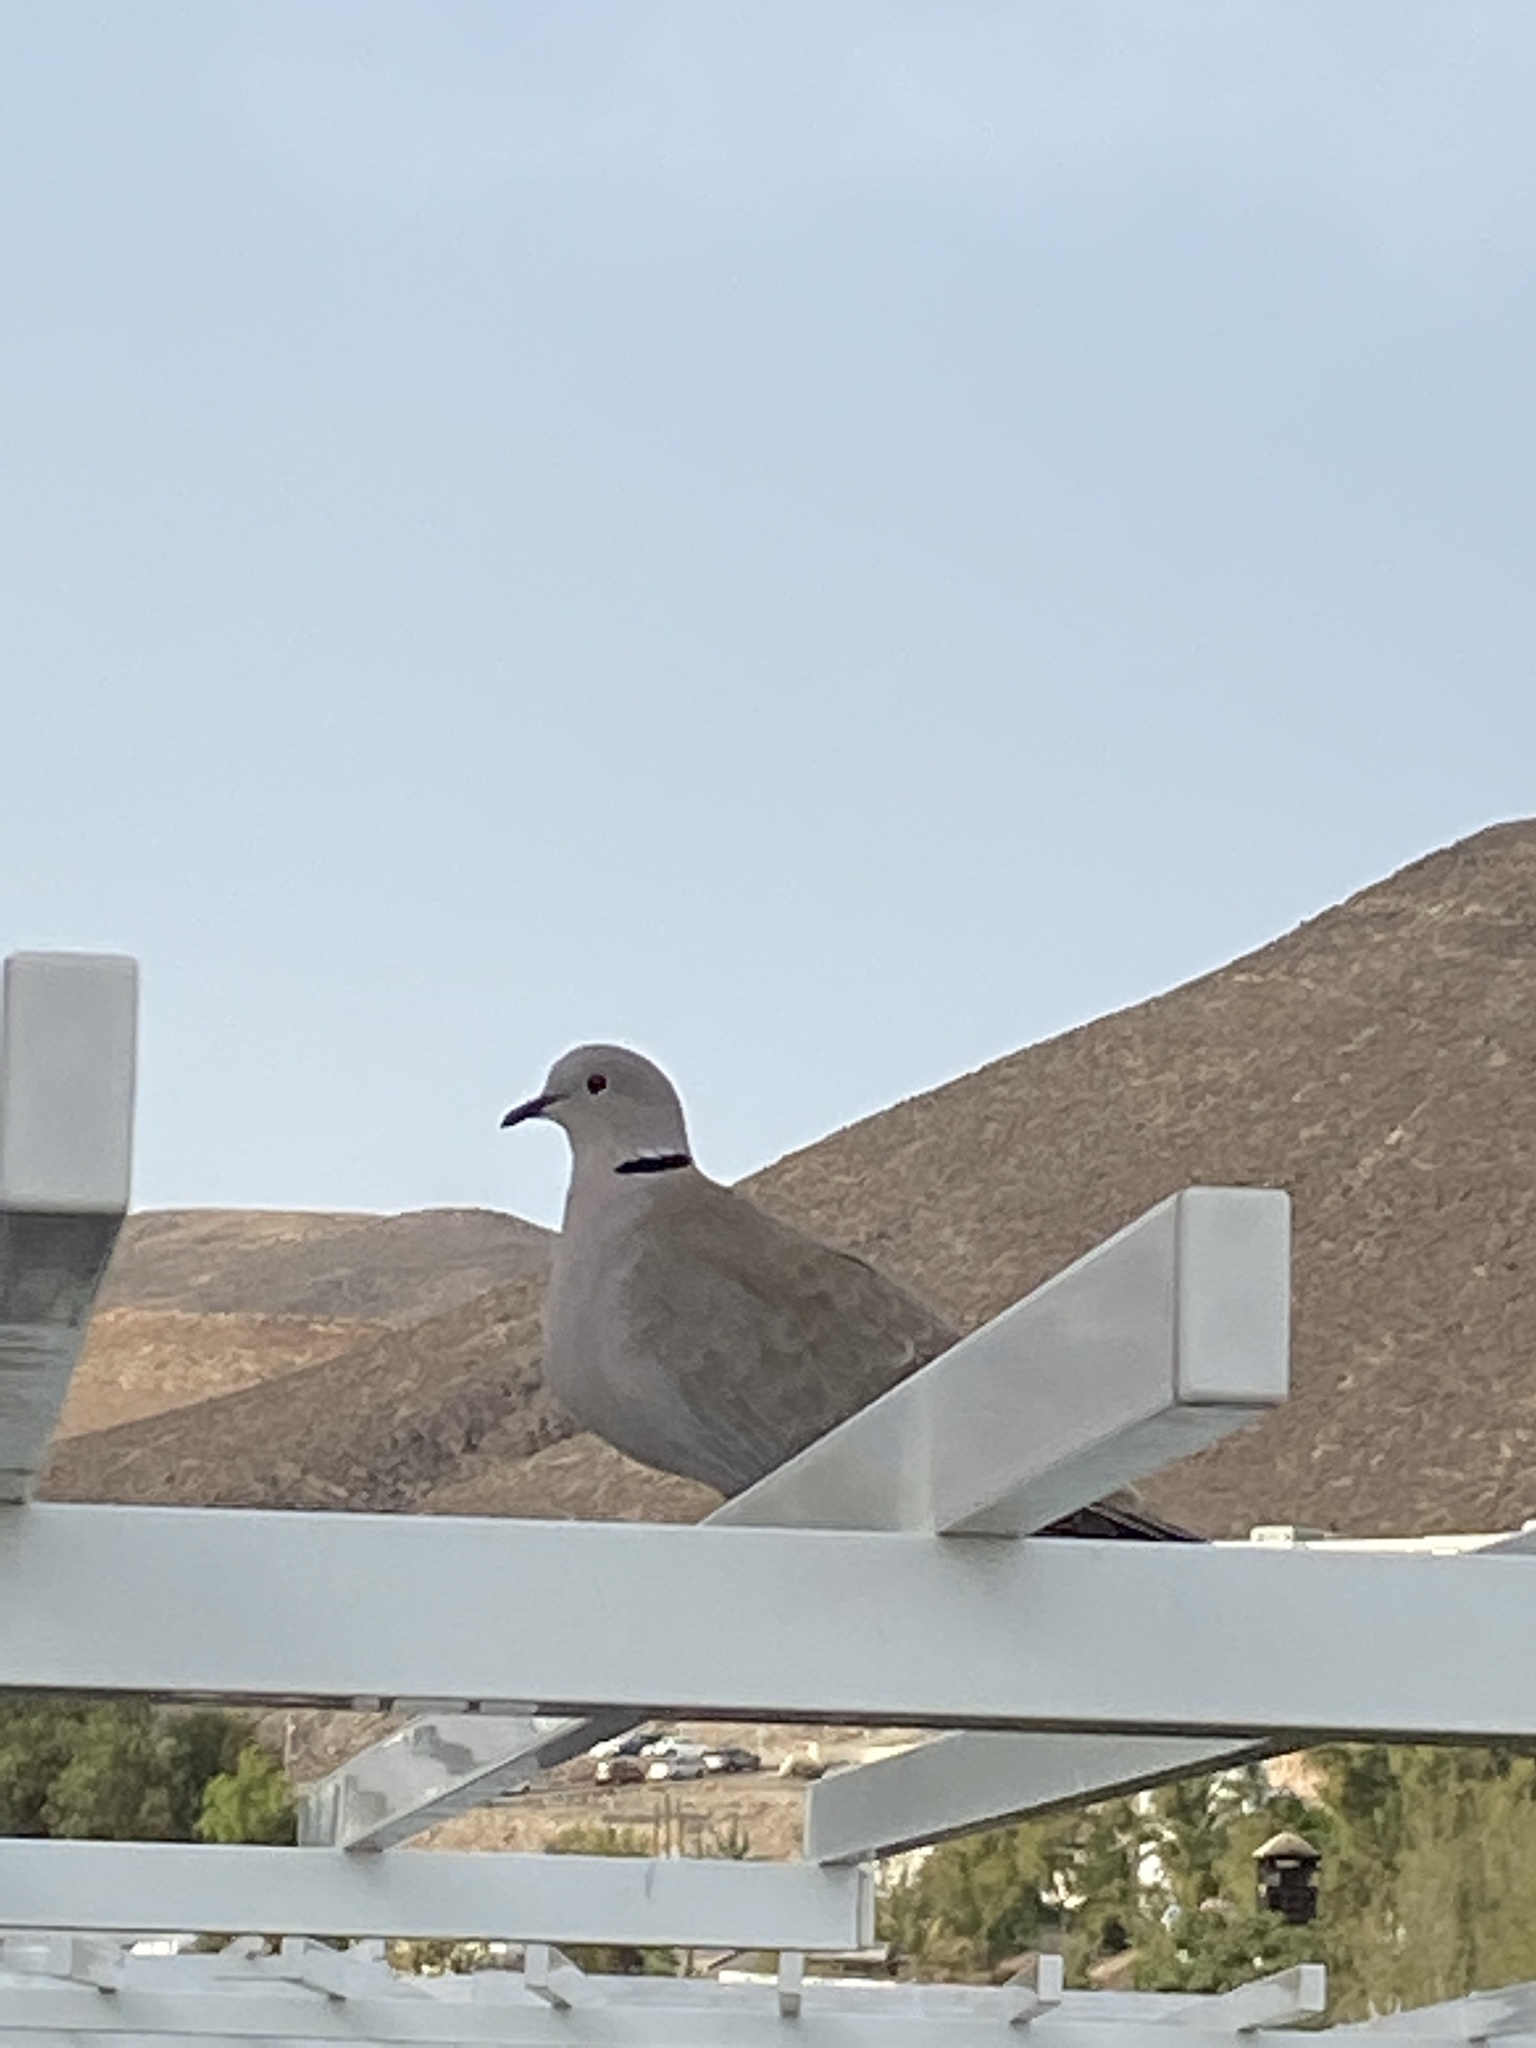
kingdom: Animalia
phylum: Chordata
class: Aves
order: Columbiformes
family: Columbidae
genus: Streptopelia
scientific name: Streptopelia decaocto
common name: Eurasian collared dove
